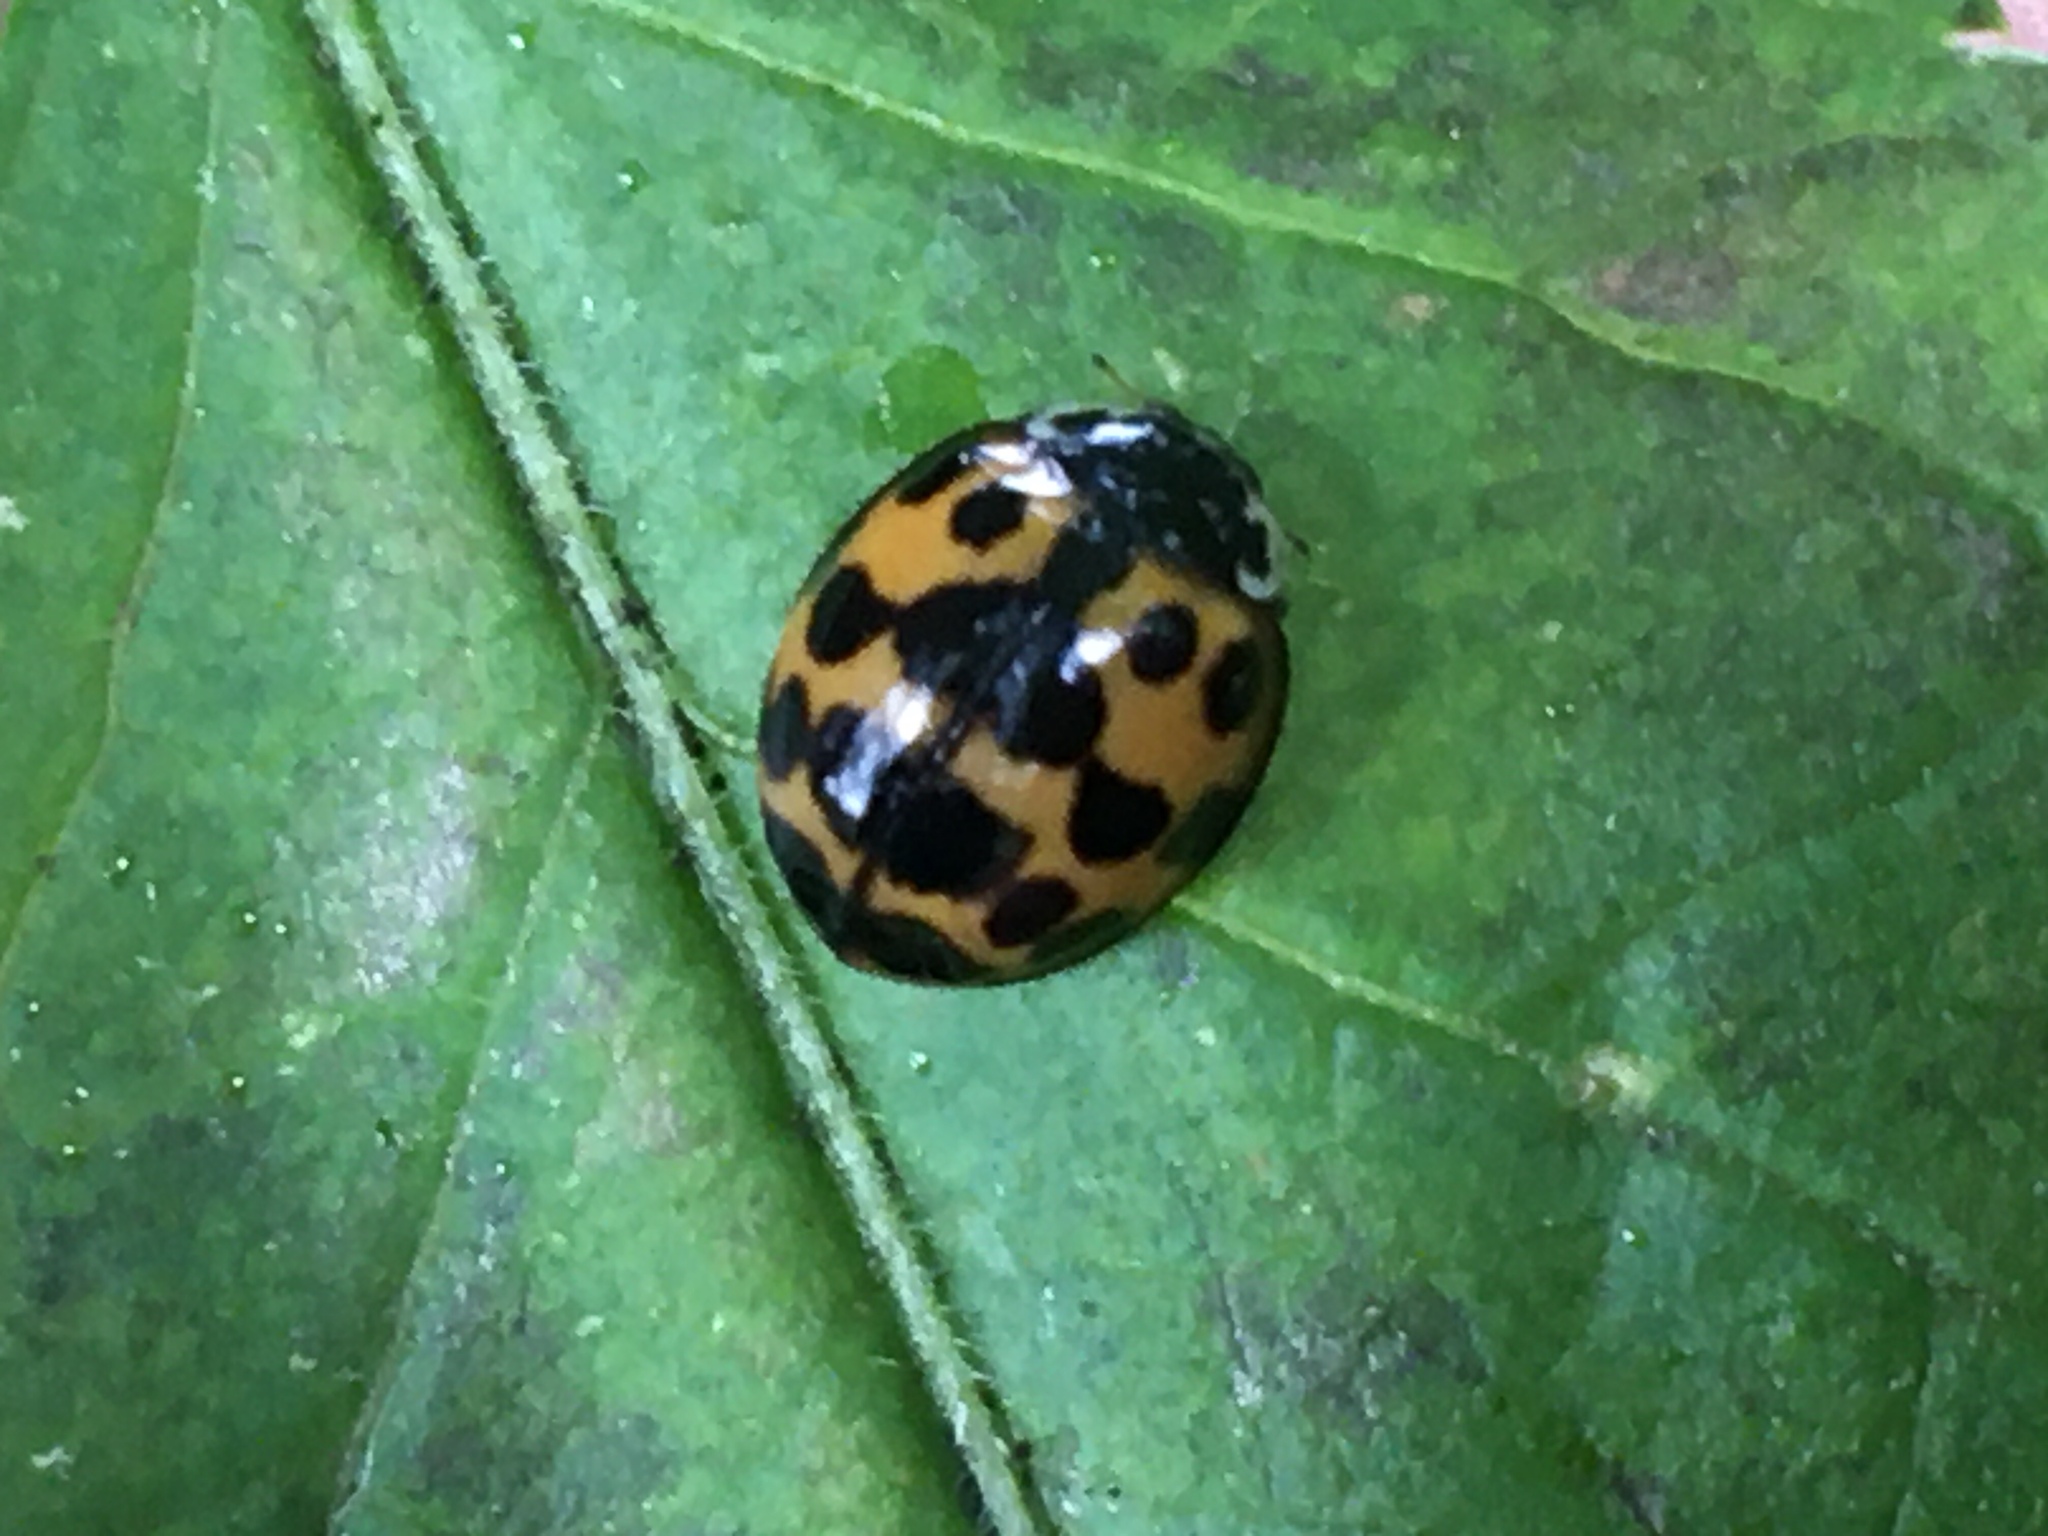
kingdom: Animalia
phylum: Arthropoda
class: Insecta
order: Coleoptera
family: Coccinellidae
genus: Harmonia
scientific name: Harmonia axyridis
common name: Harlequin ladybird
